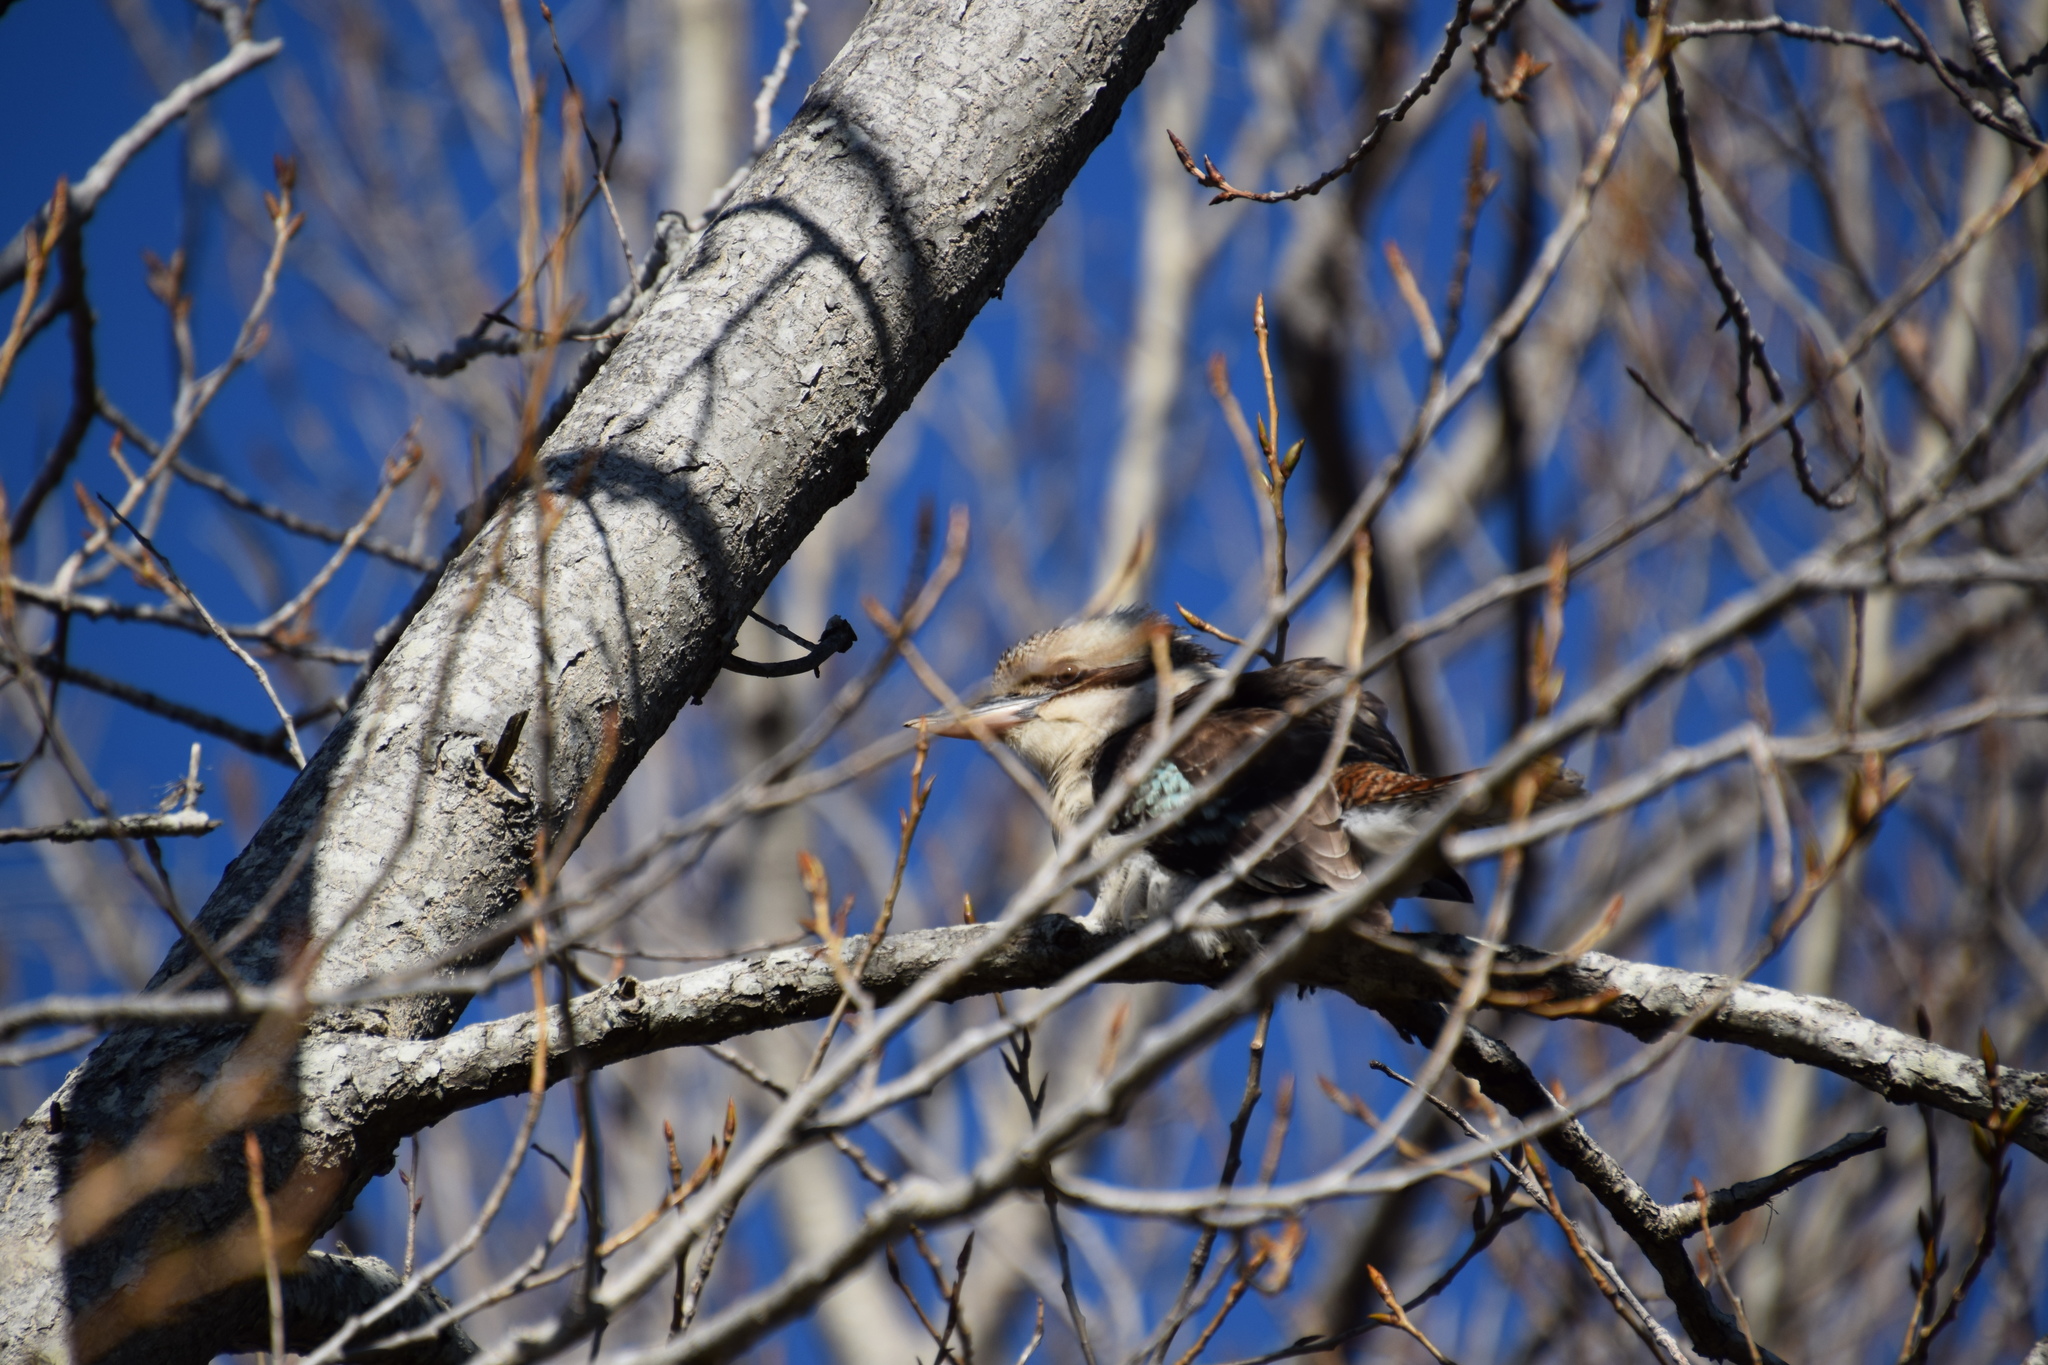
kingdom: Animalia
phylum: Chordata
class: Aves
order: Coraciiformes
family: Alcedinidae
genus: Dacelo
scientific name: Dacelo novaeguineae
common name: Laughing kookaburra
